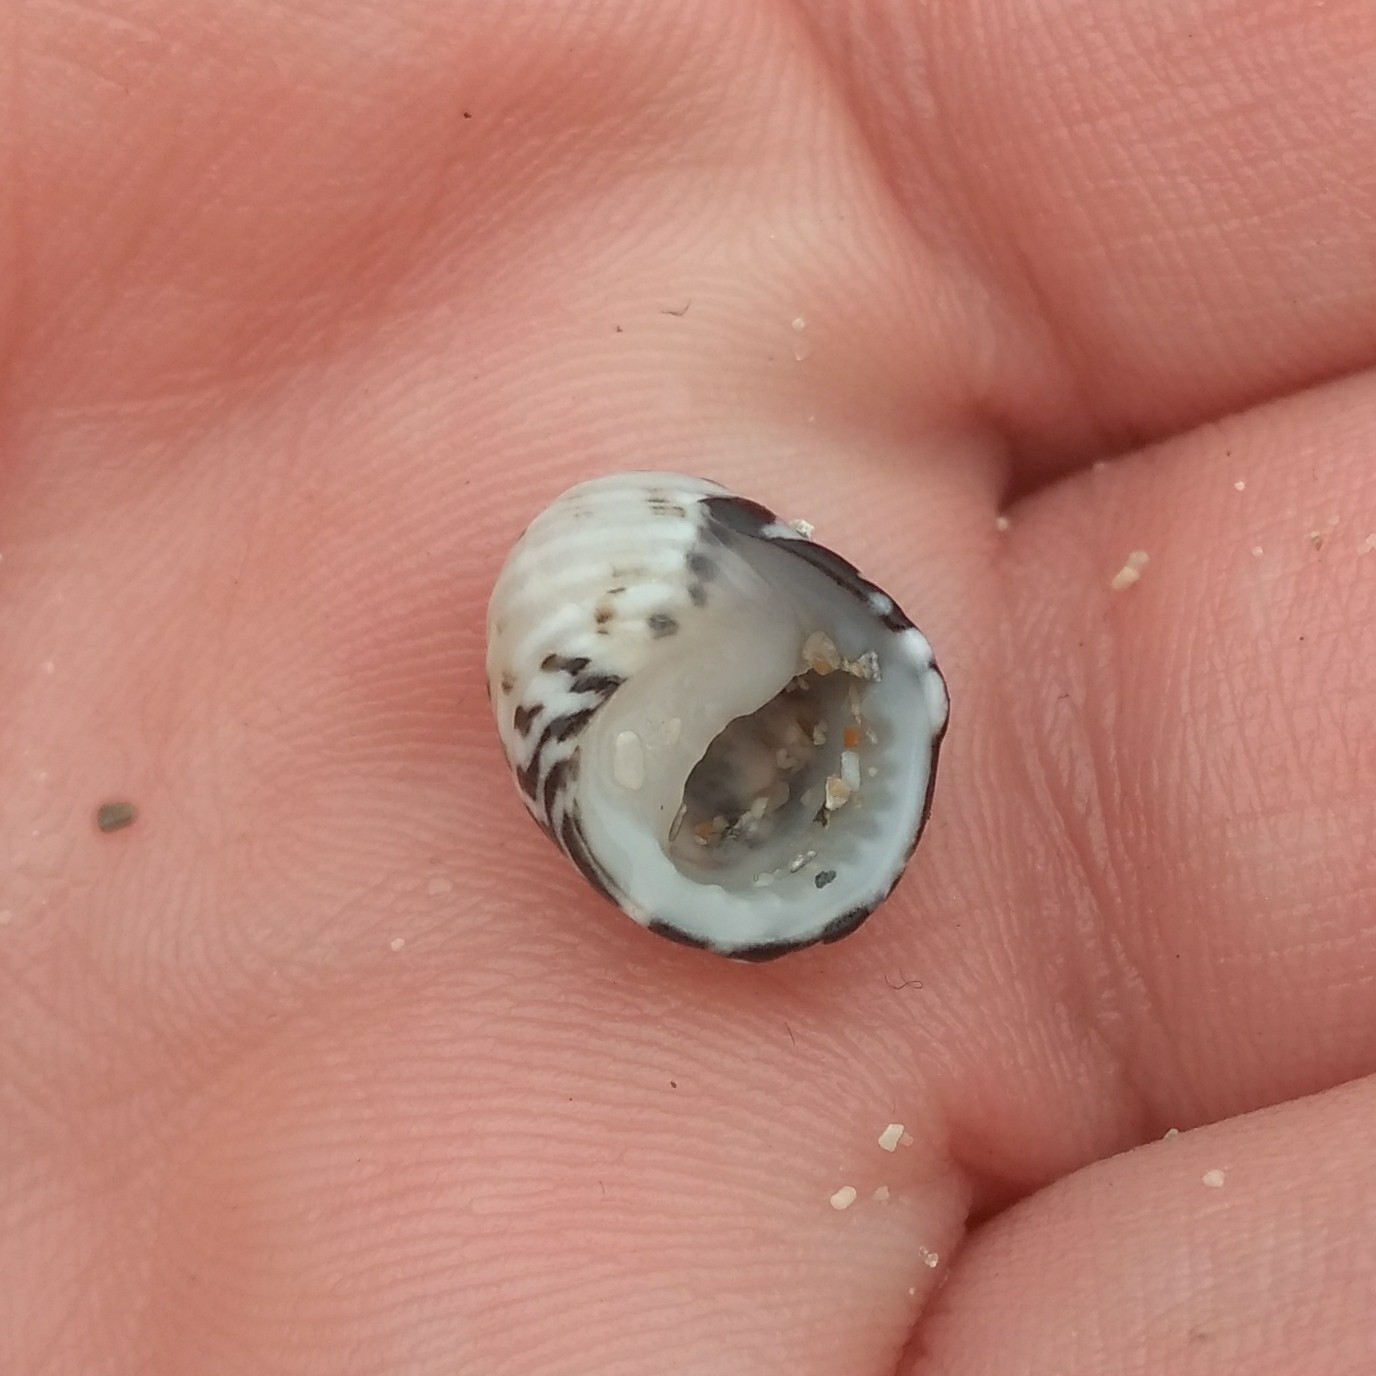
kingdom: Animalia
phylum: Mollusca
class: Gastropoda
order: Cycloneritida
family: Neritidae
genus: Nerita
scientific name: Nerita tessellata
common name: Checkered nerite
